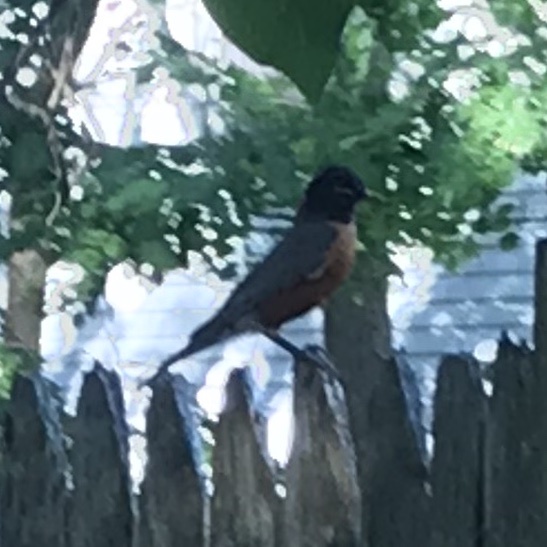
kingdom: Animalia
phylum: Chordata
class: Aves
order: Passeriformes
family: Turdidae
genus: Turdus
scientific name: Turdus migratorius
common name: American robin
